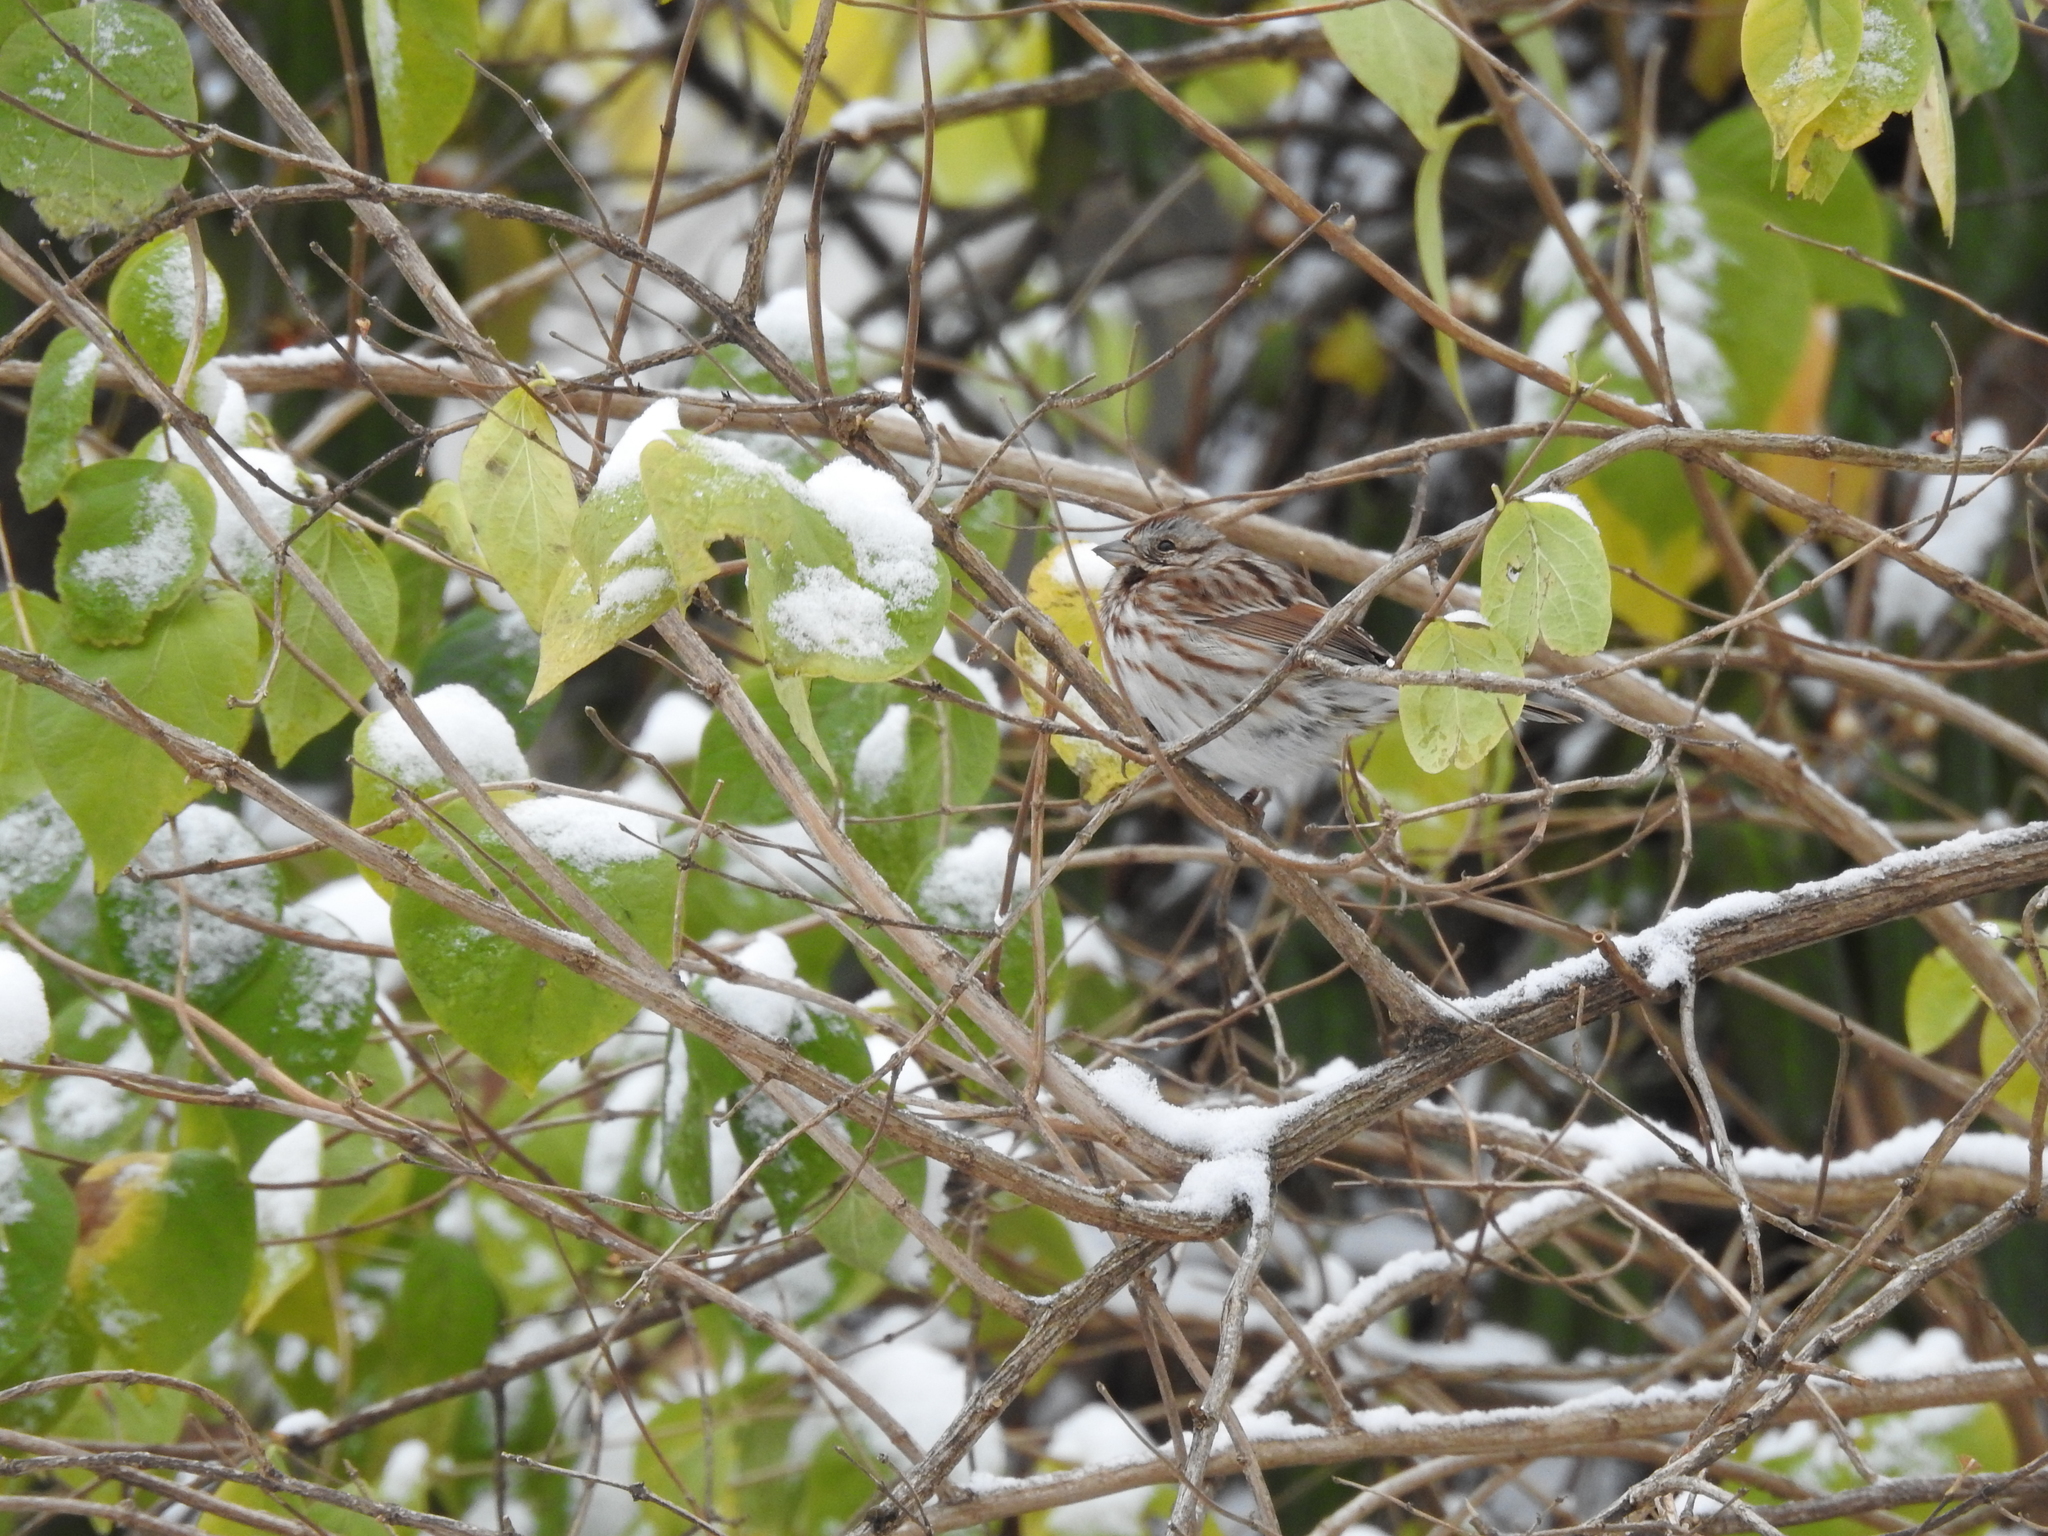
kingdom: Animalia
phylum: Chordata
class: Aves
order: Passeriformes
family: Passerellidae
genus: Melospiza
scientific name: Melospiza melodia
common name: Song sparrow
